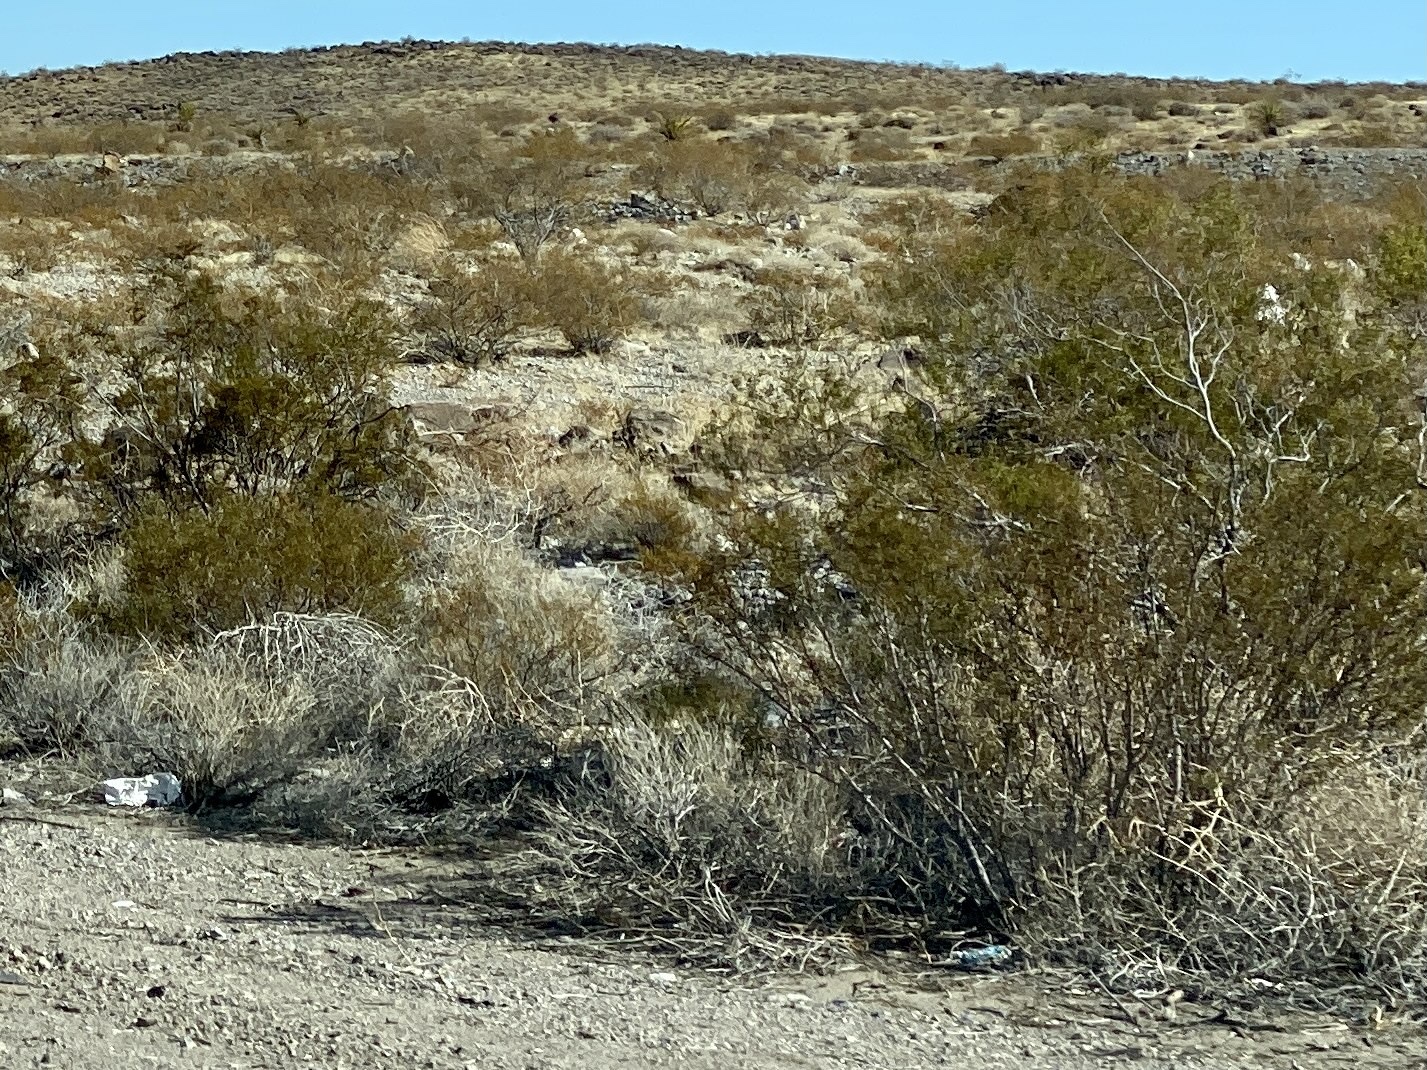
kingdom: Plantae
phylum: Tracheophyta
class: Magnoliopsida
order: Zygophyllales
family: Zygophyllaceae
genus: Larrea
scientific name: Larrea tridentata
